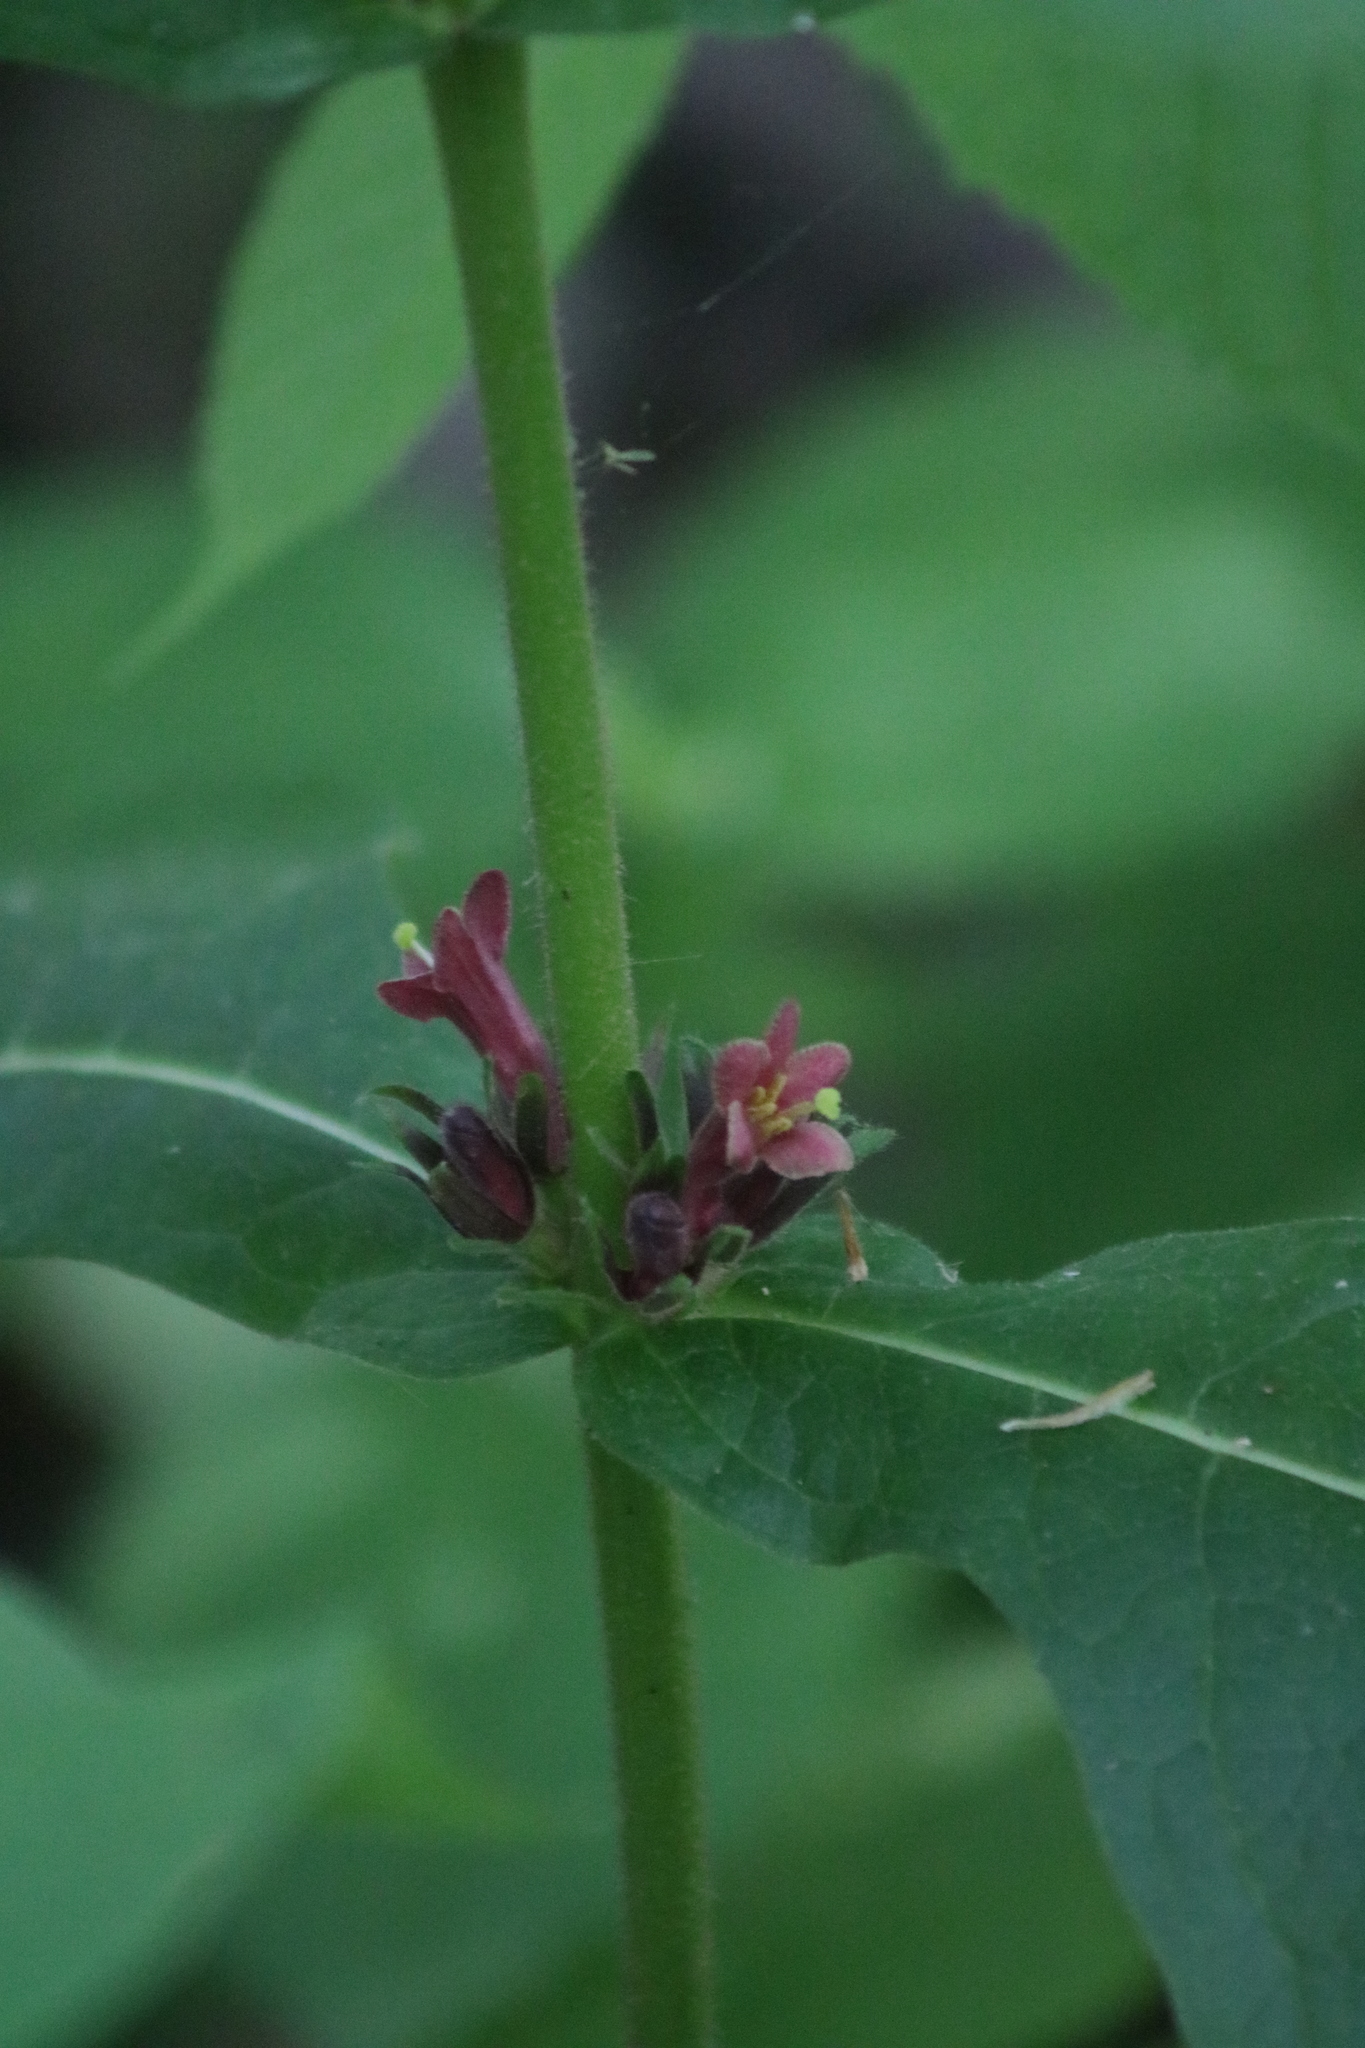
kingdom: Plantae
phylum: Tracheophyta
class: Magnoliopsida
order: Dipsacales
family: Caprifoliaceae
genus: Triosteum
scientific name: Triosteum aurantiacum
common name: Coffee tinker's-weed
